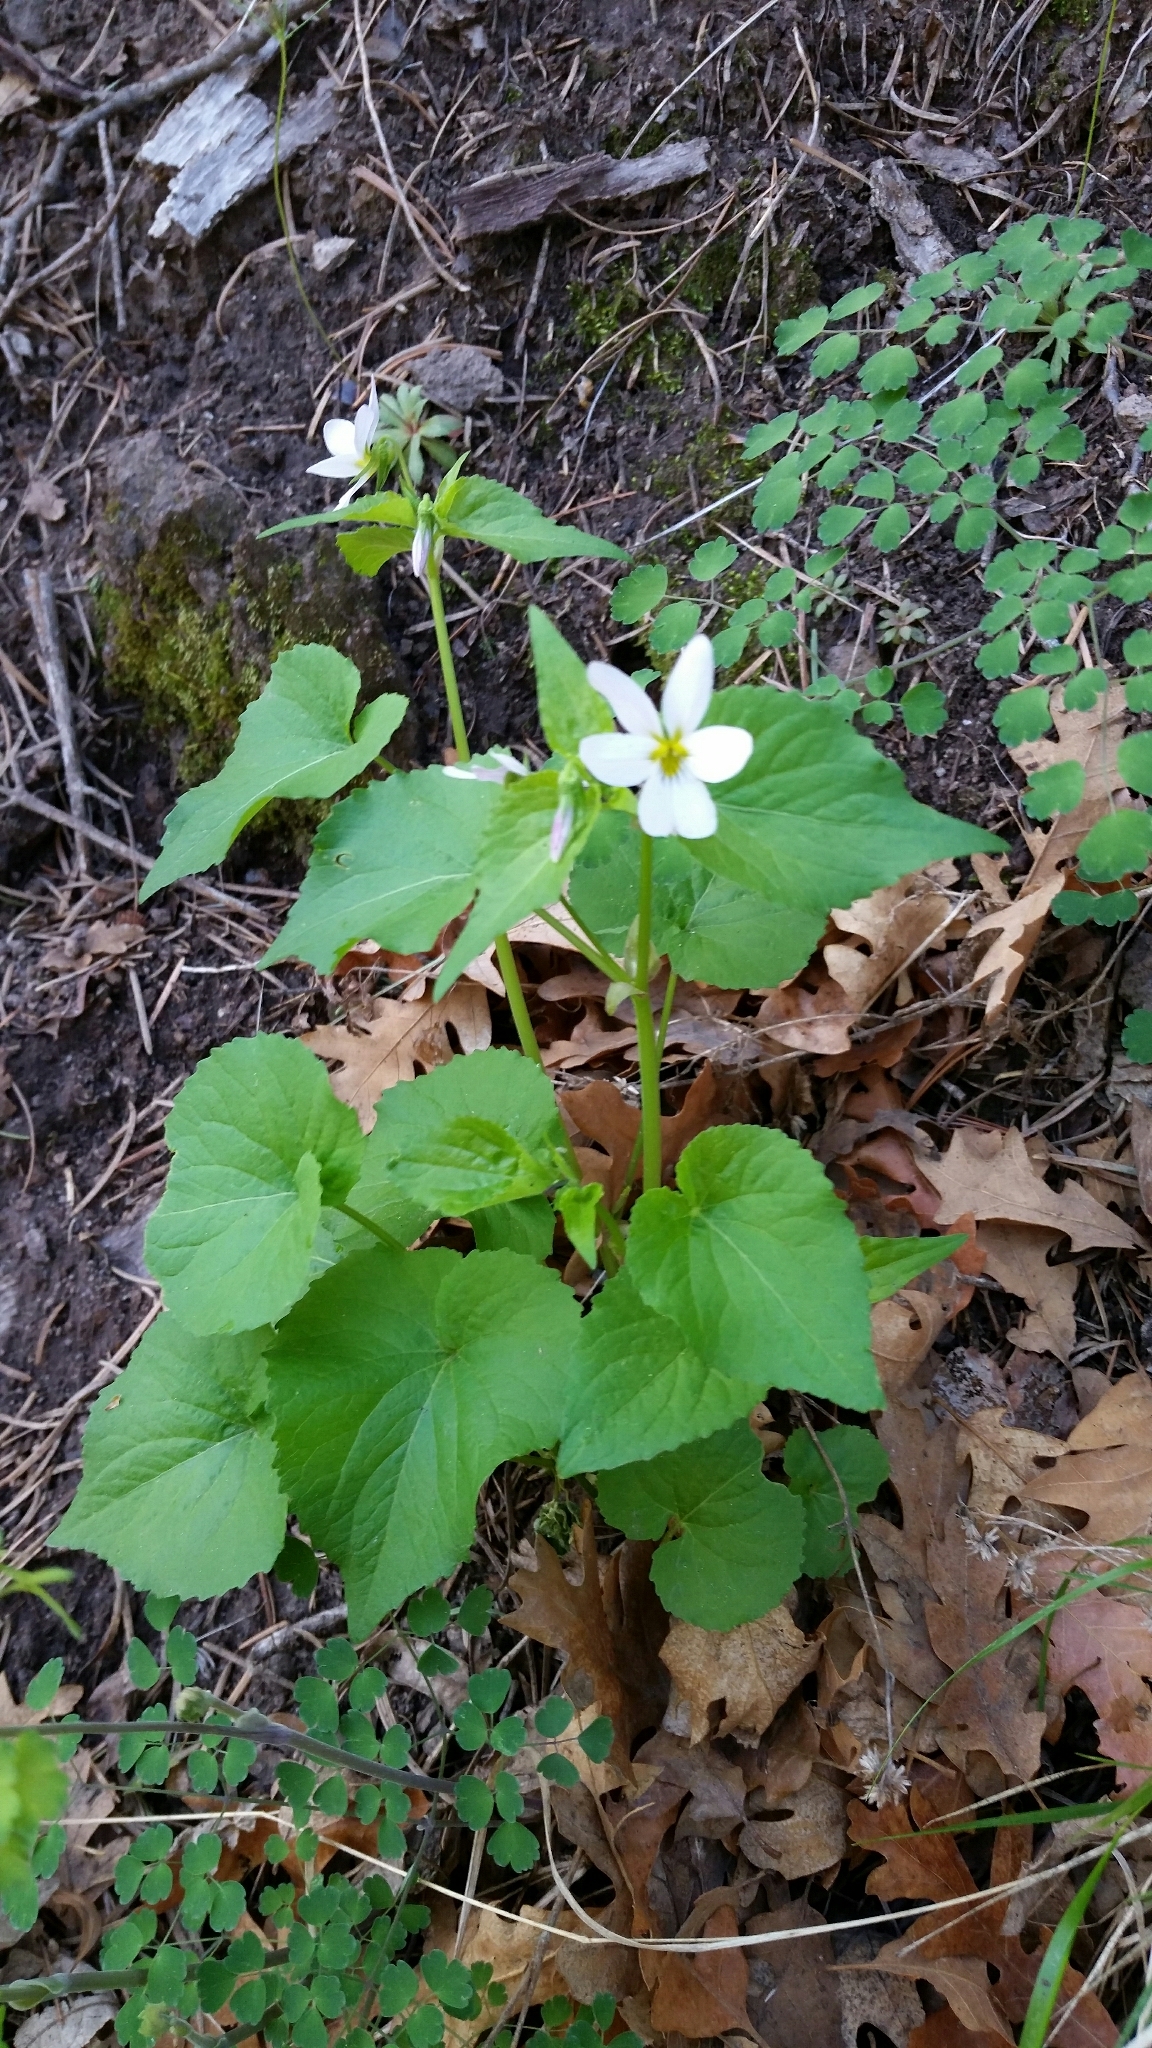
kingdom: Plantae
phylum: Tracheophyta
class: Magnoliopsida
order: Malpighiales
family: Violaceae
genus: Viola
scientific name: Viola canadensis
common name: Canada violet
